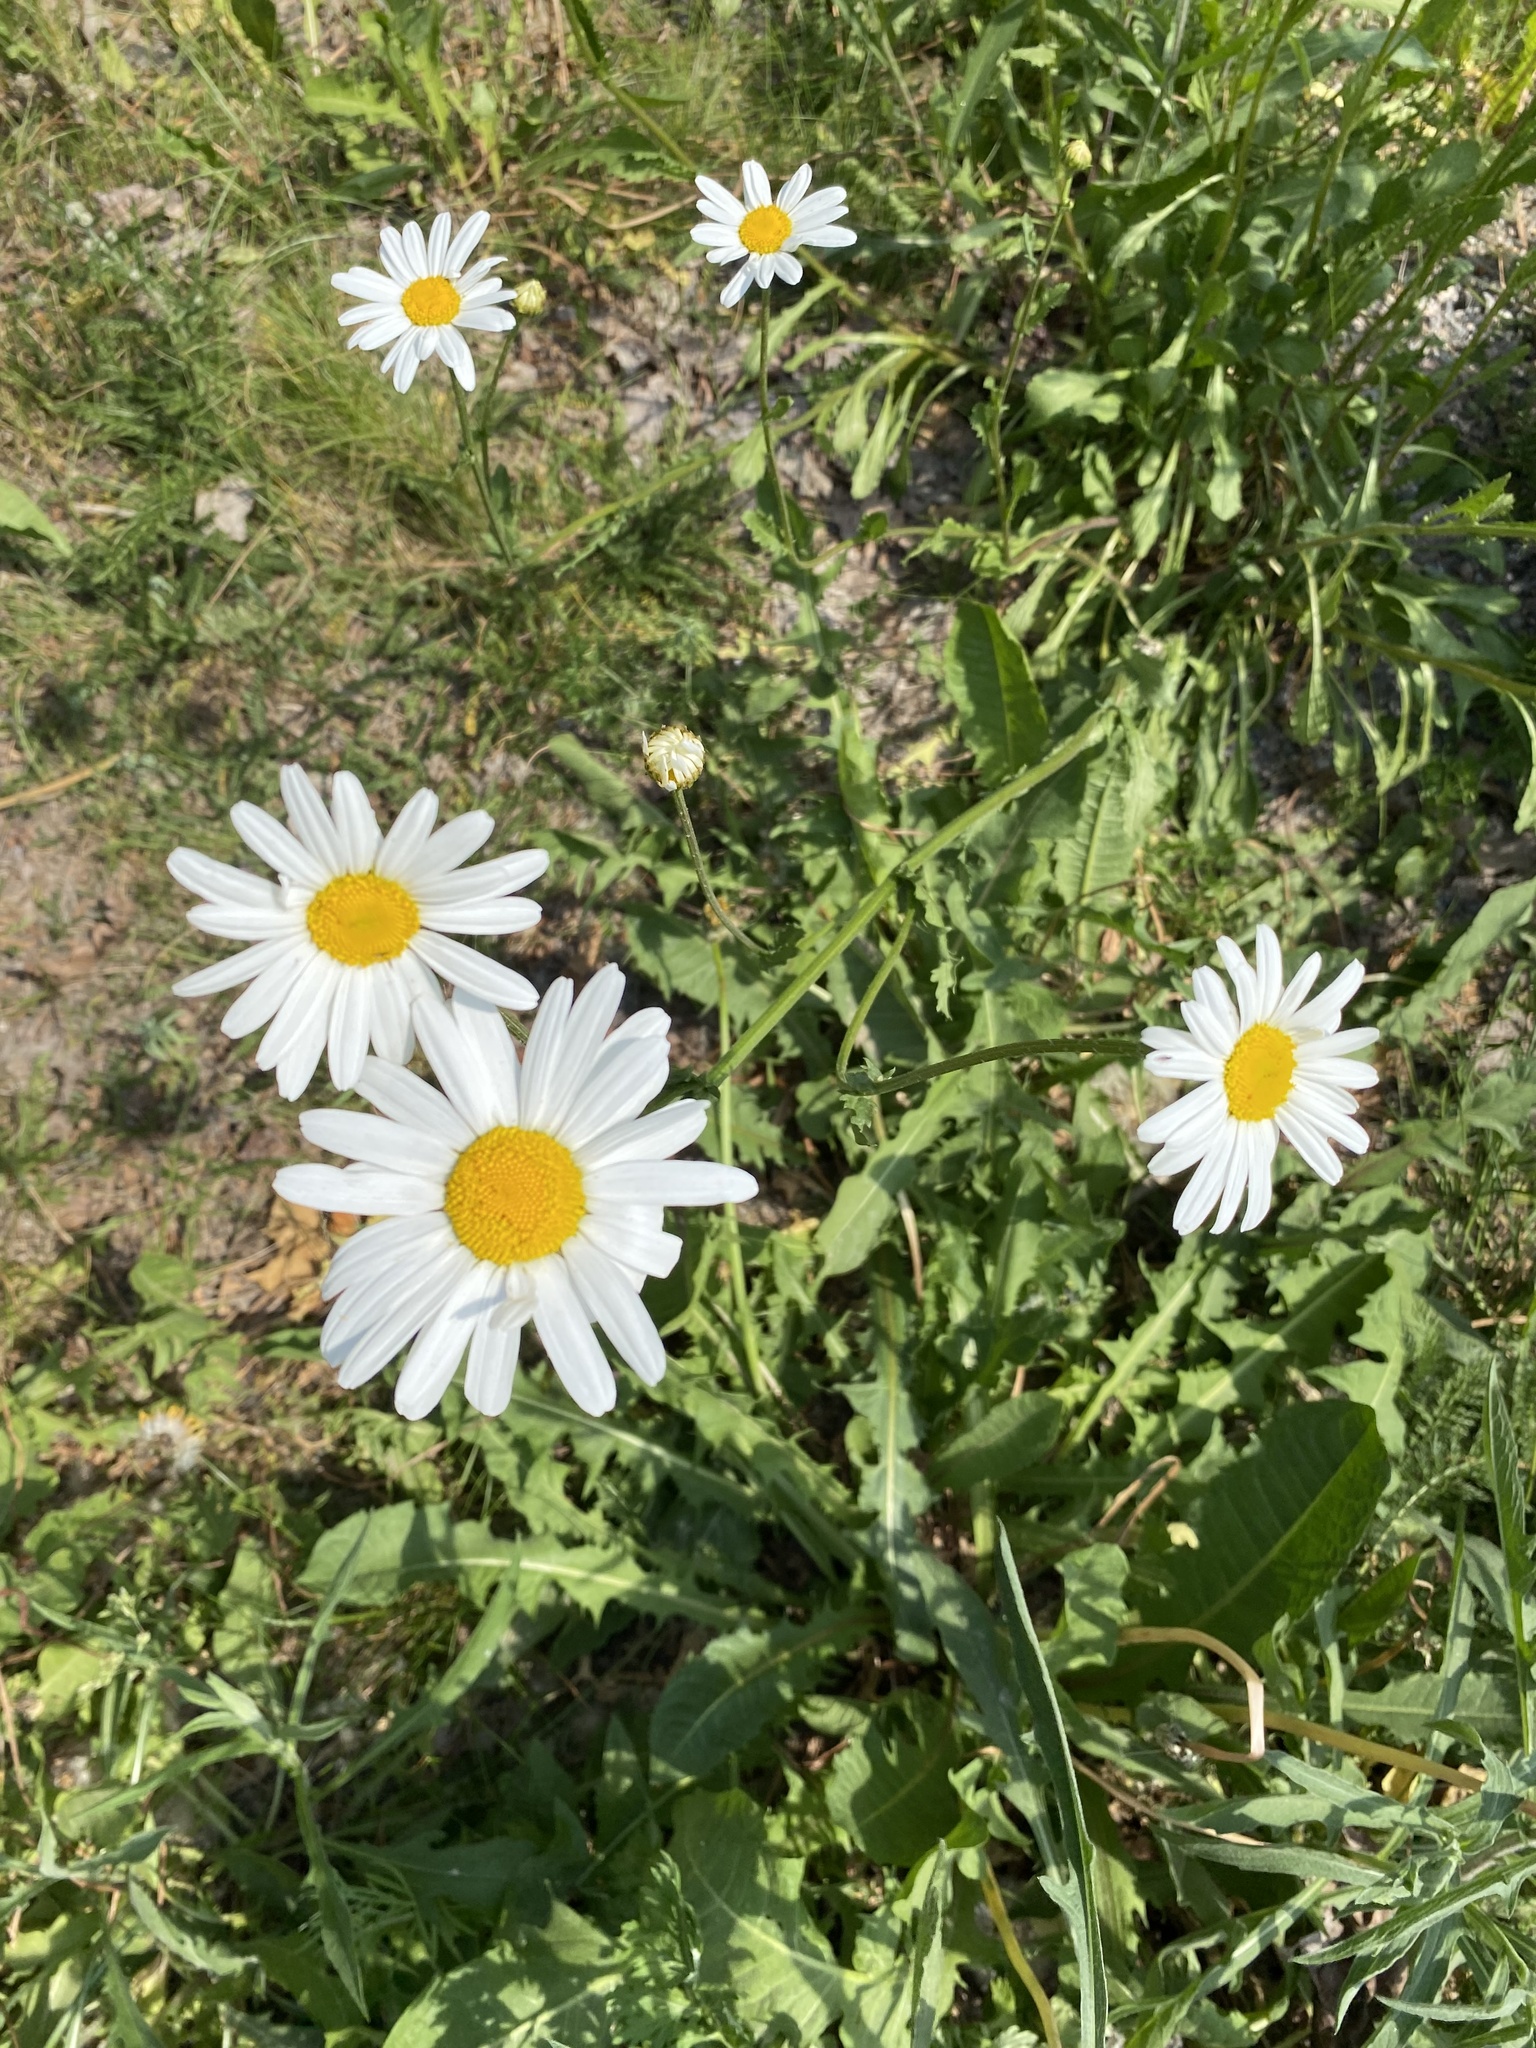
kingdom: Plantae
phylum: Tracheophyta
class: Magnoliopsida
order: Asterales
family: Asteraceae
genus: Leucanthemum
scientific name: Leucanthemum vulgare
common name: Oxeye daisy
